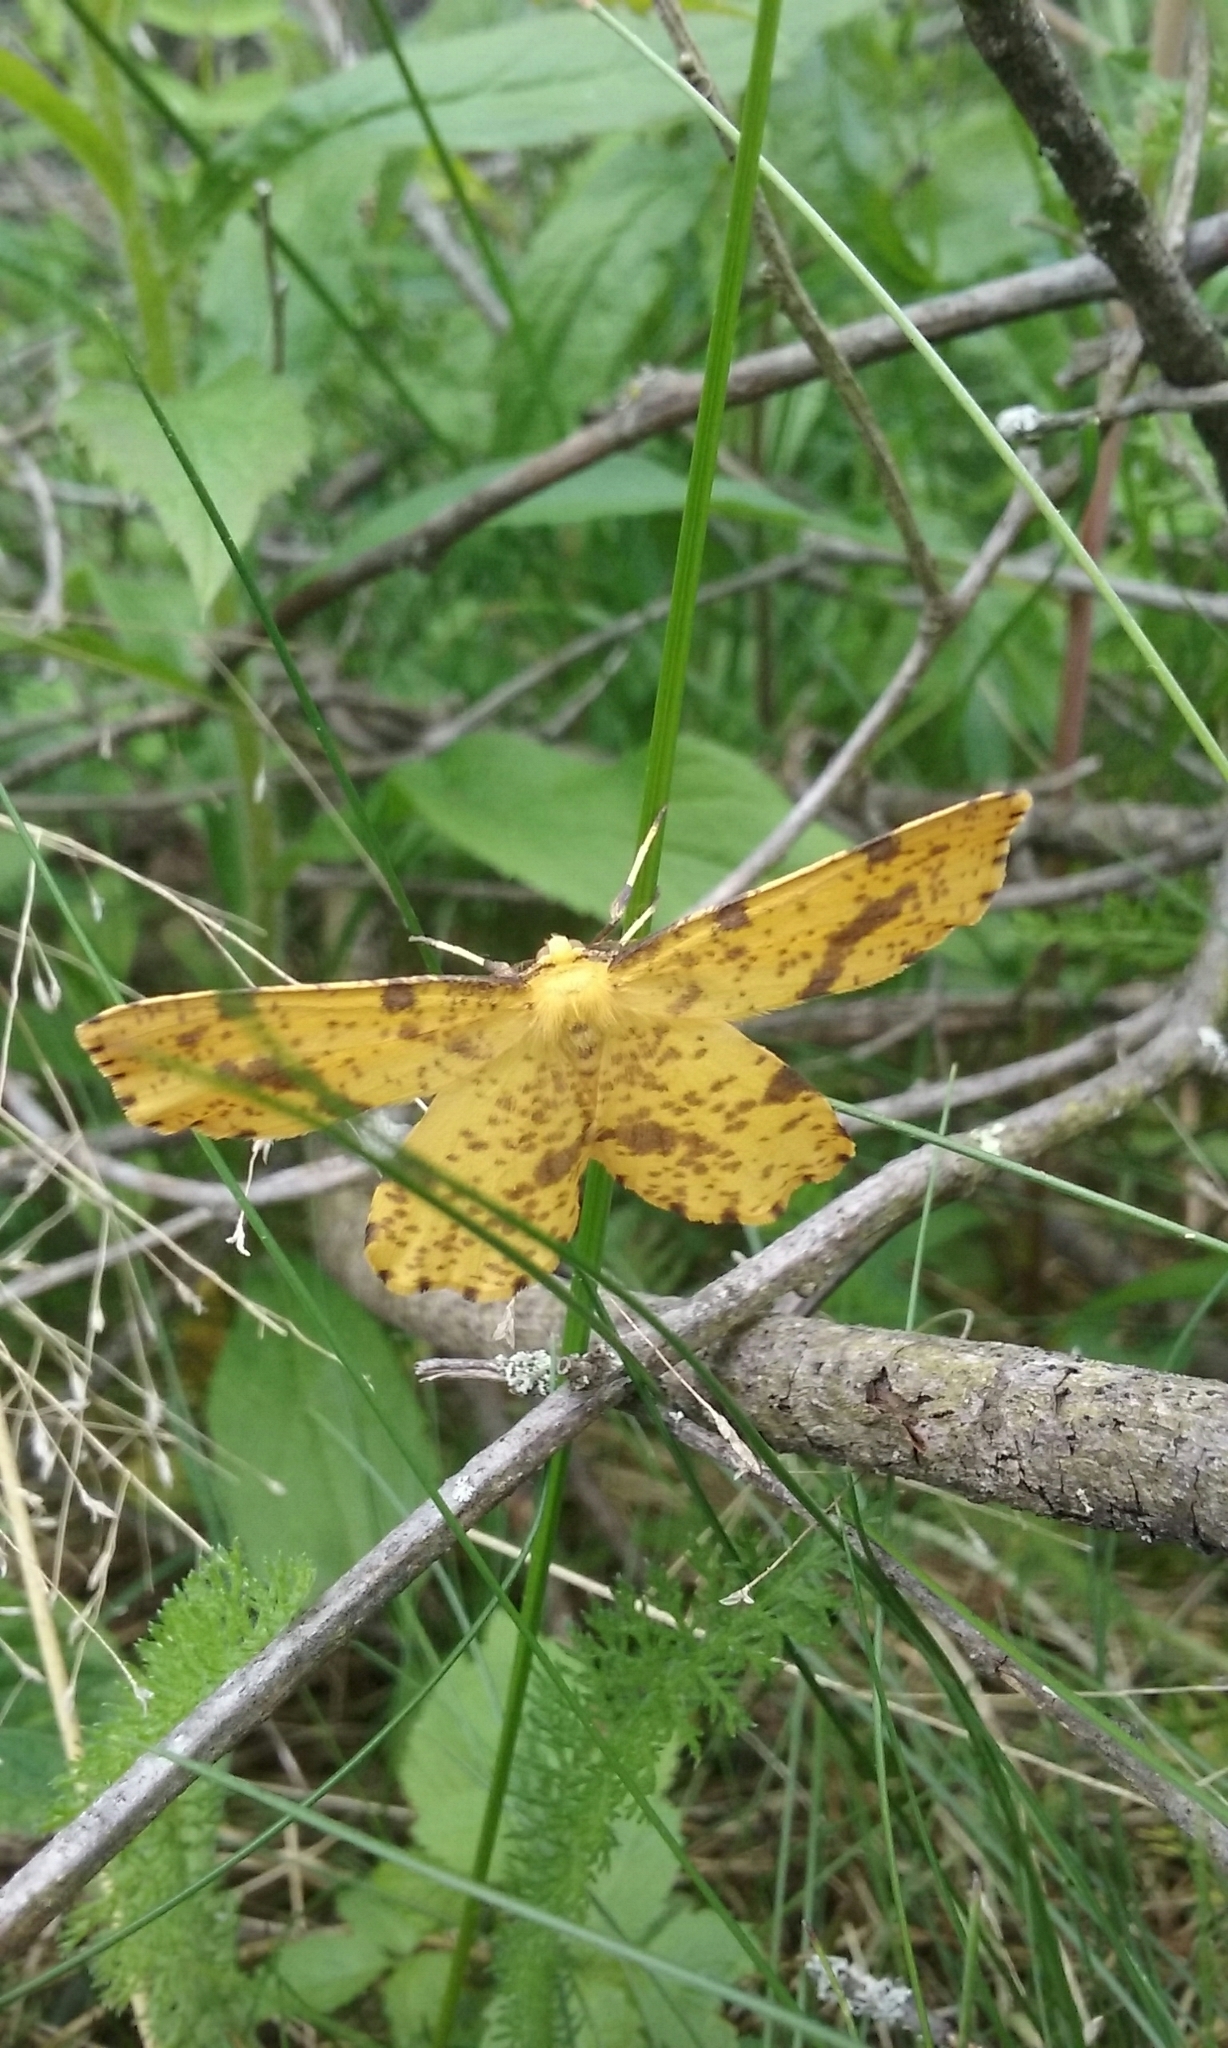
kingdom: Animalia
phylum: Arthropoda
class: Insecta
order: Lepidoptera
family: Geometridae
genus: Xanthotype
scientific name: Xanthotype
